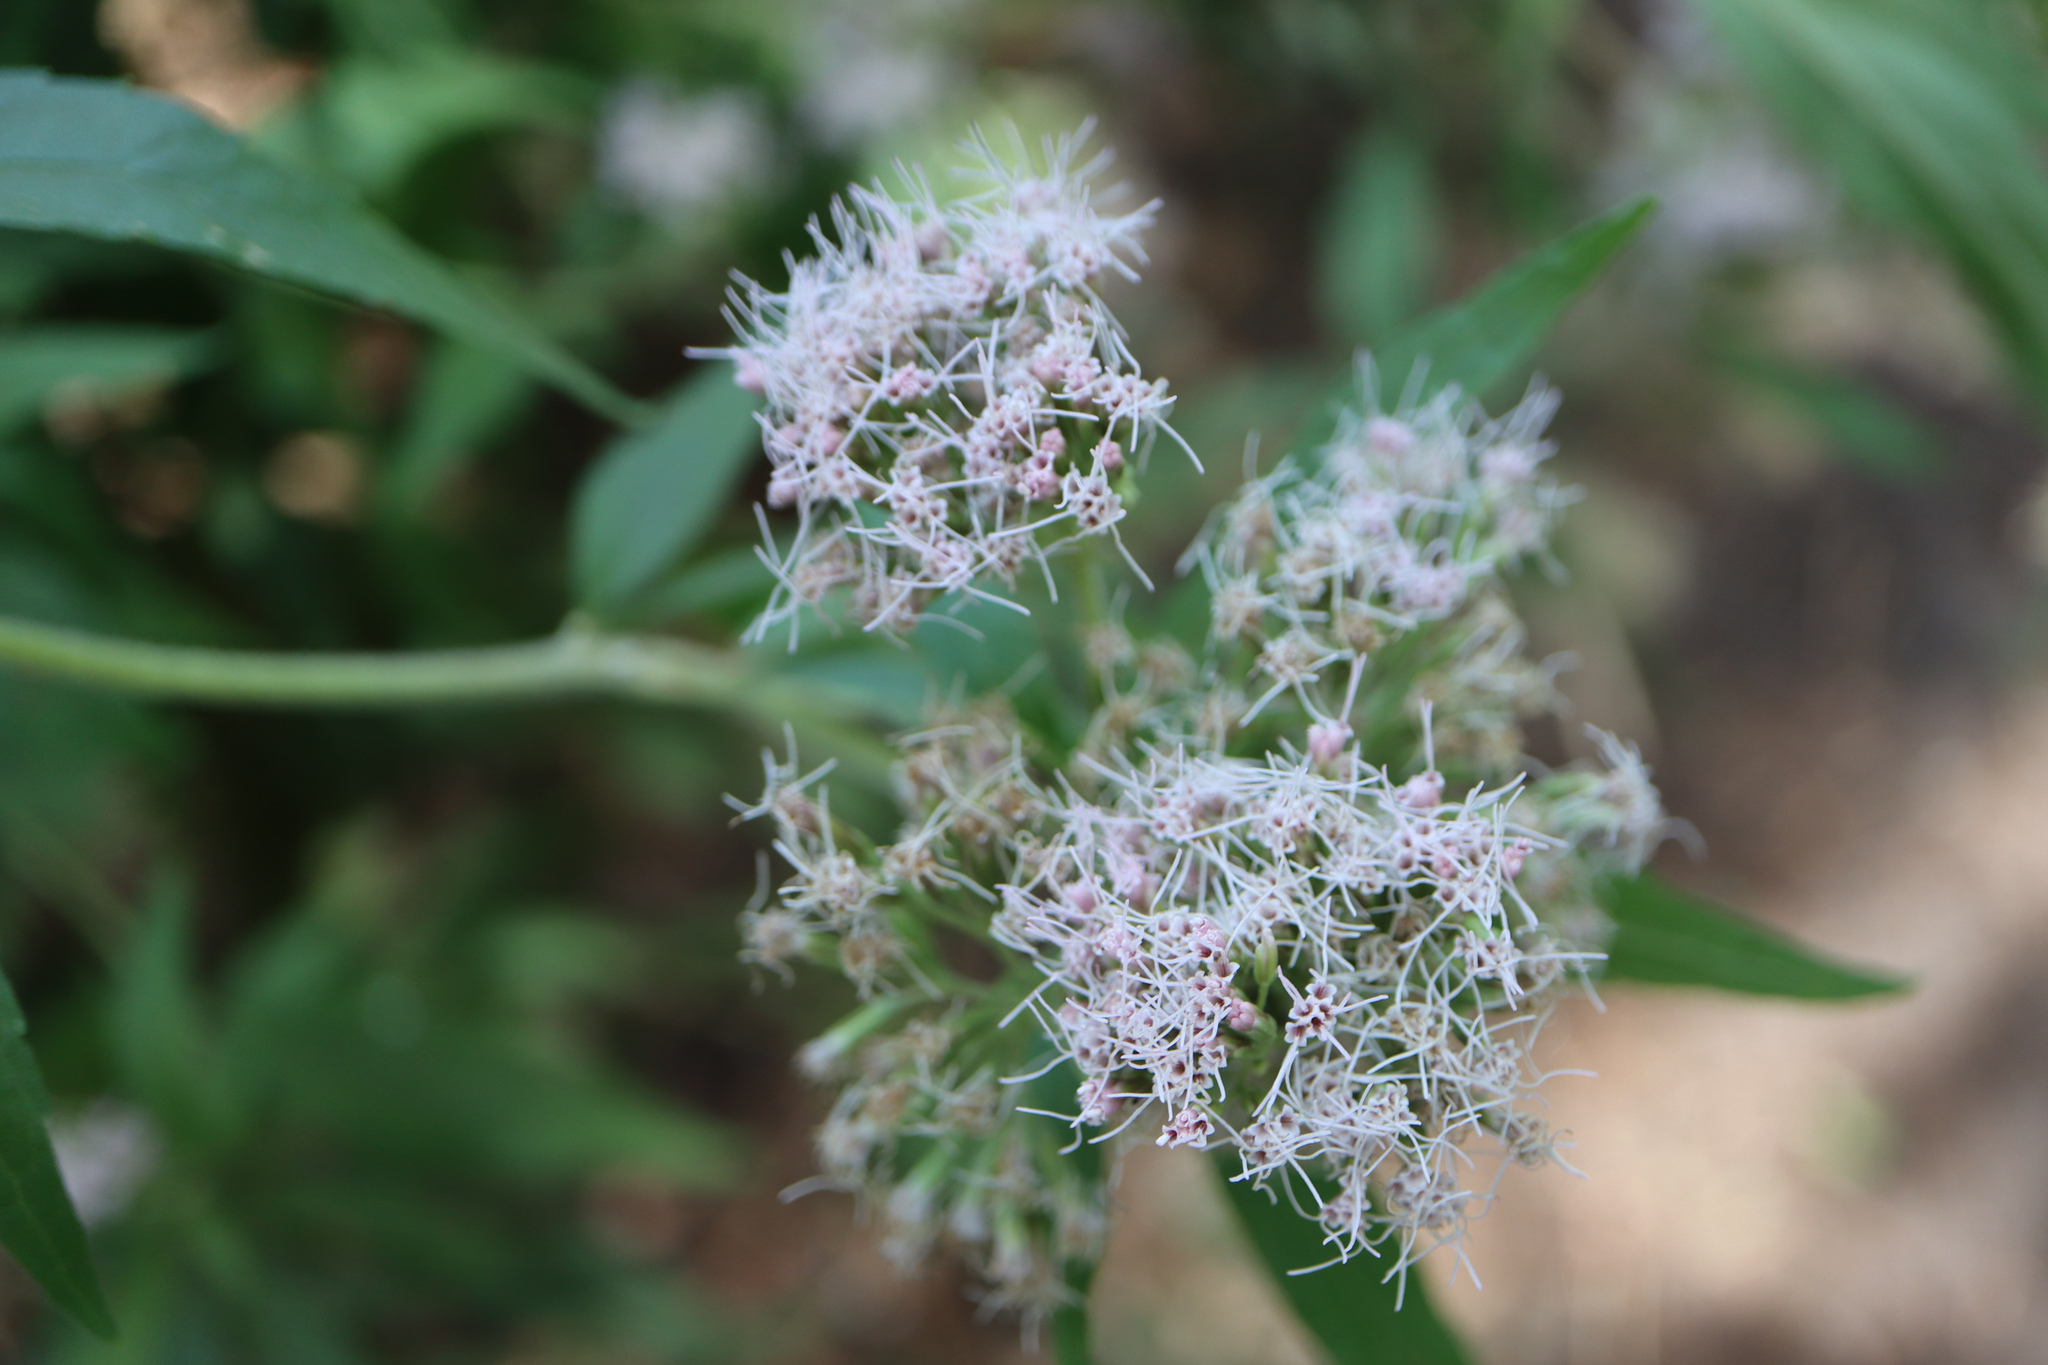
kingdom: Plantae
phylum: Tracheophyta
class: Magnoliopsida
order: Asterales
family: Asteraceae
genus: Eupatorium
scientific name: Eupatorium cannabinum
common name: Hemp-agrimony
